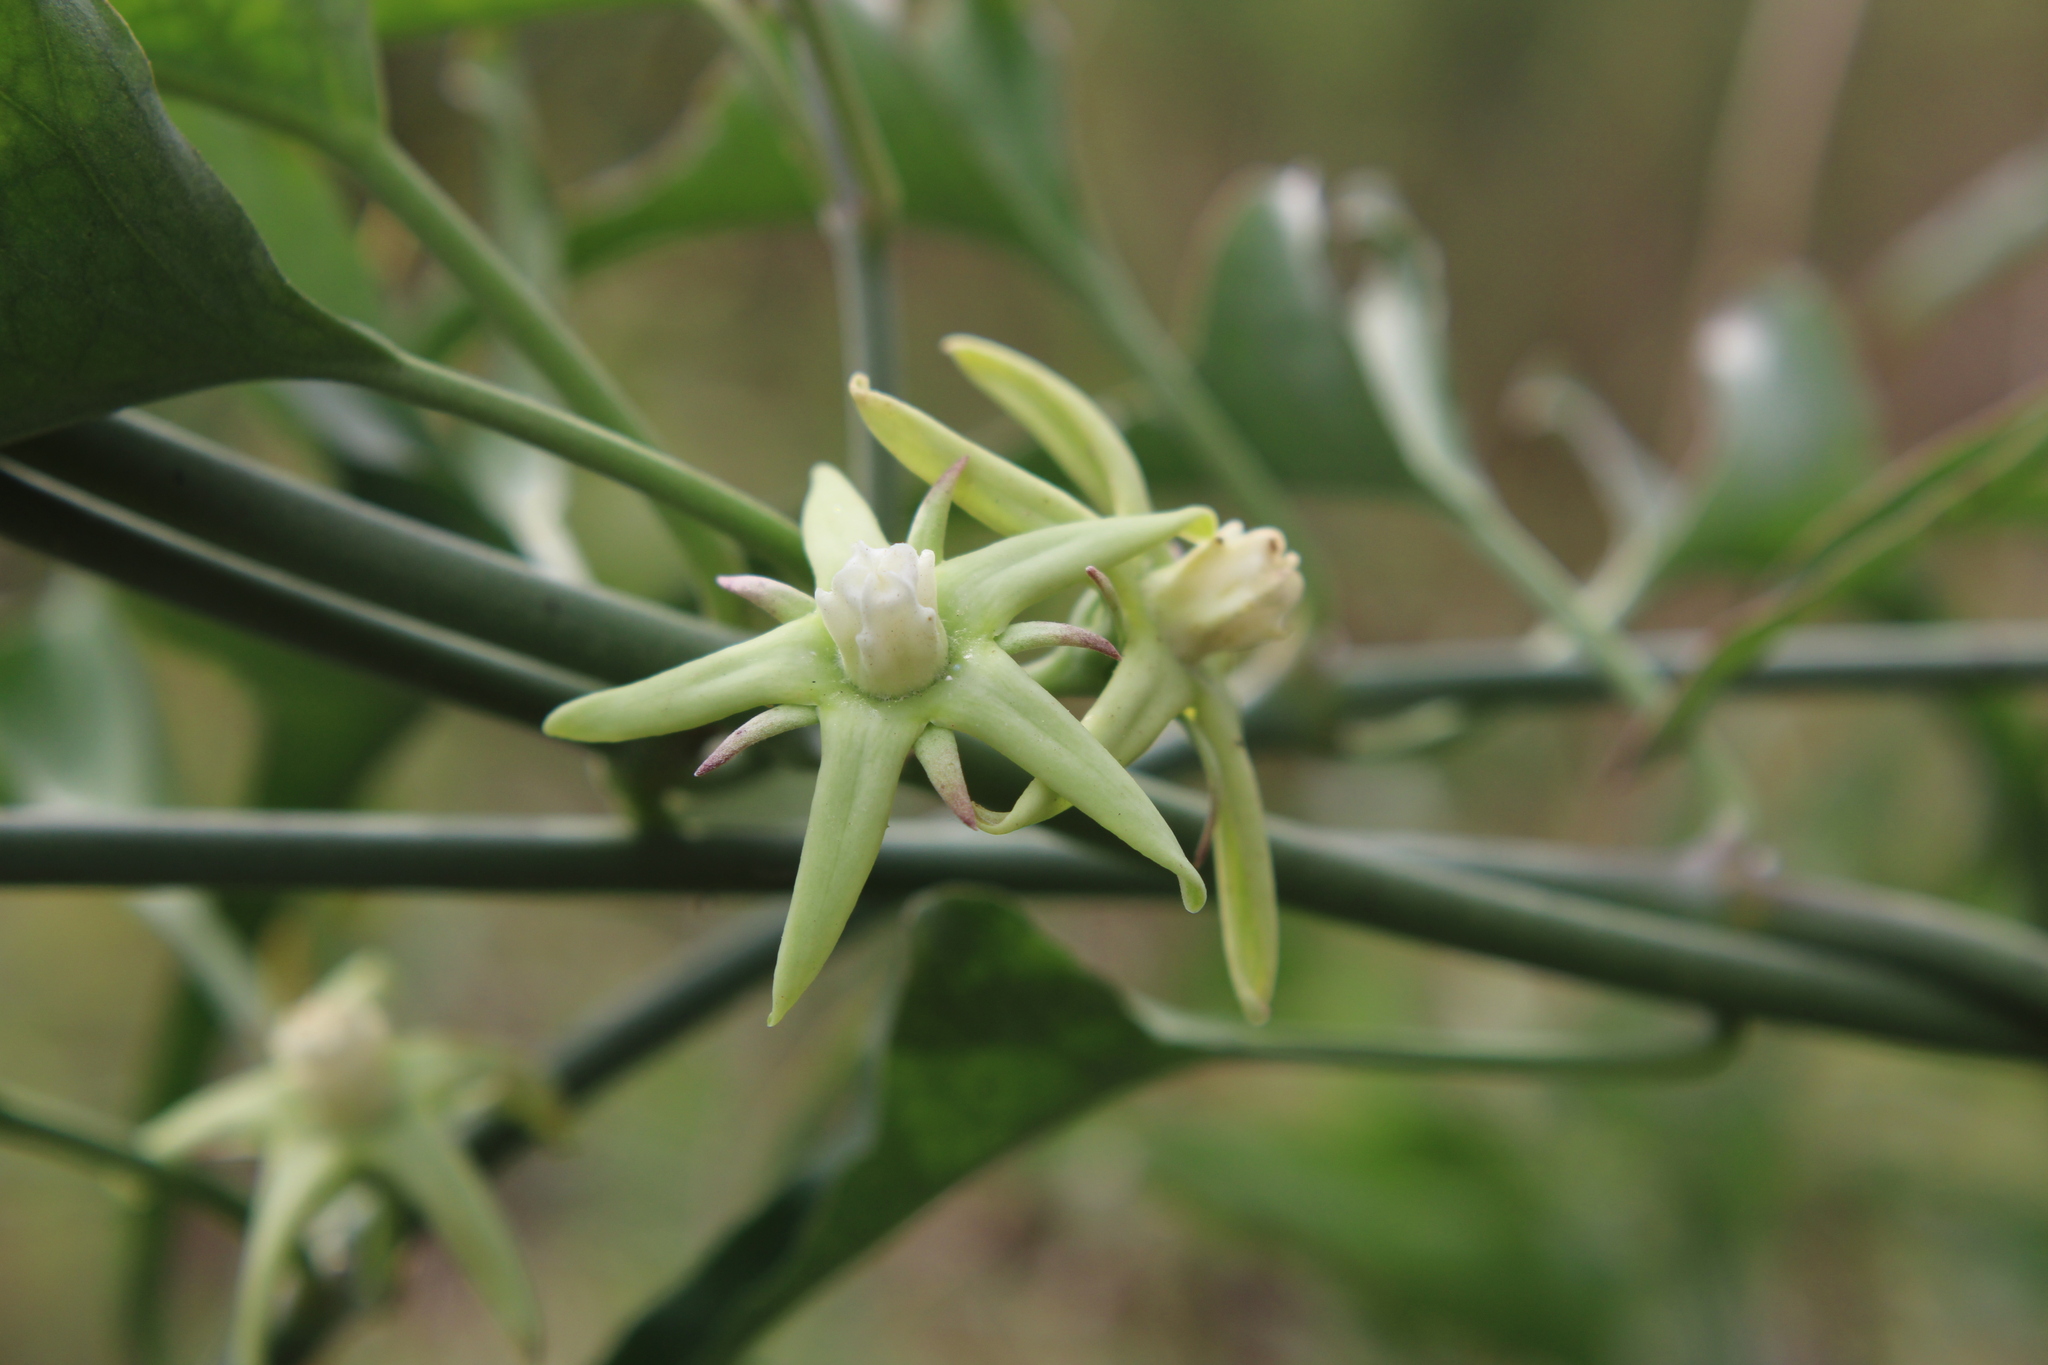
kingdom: Plantae
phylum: Tracheophyta
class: Magnoliopsida
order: Gentianales
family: Apocynaceae
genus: Araujia
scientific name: Araujia odorata
